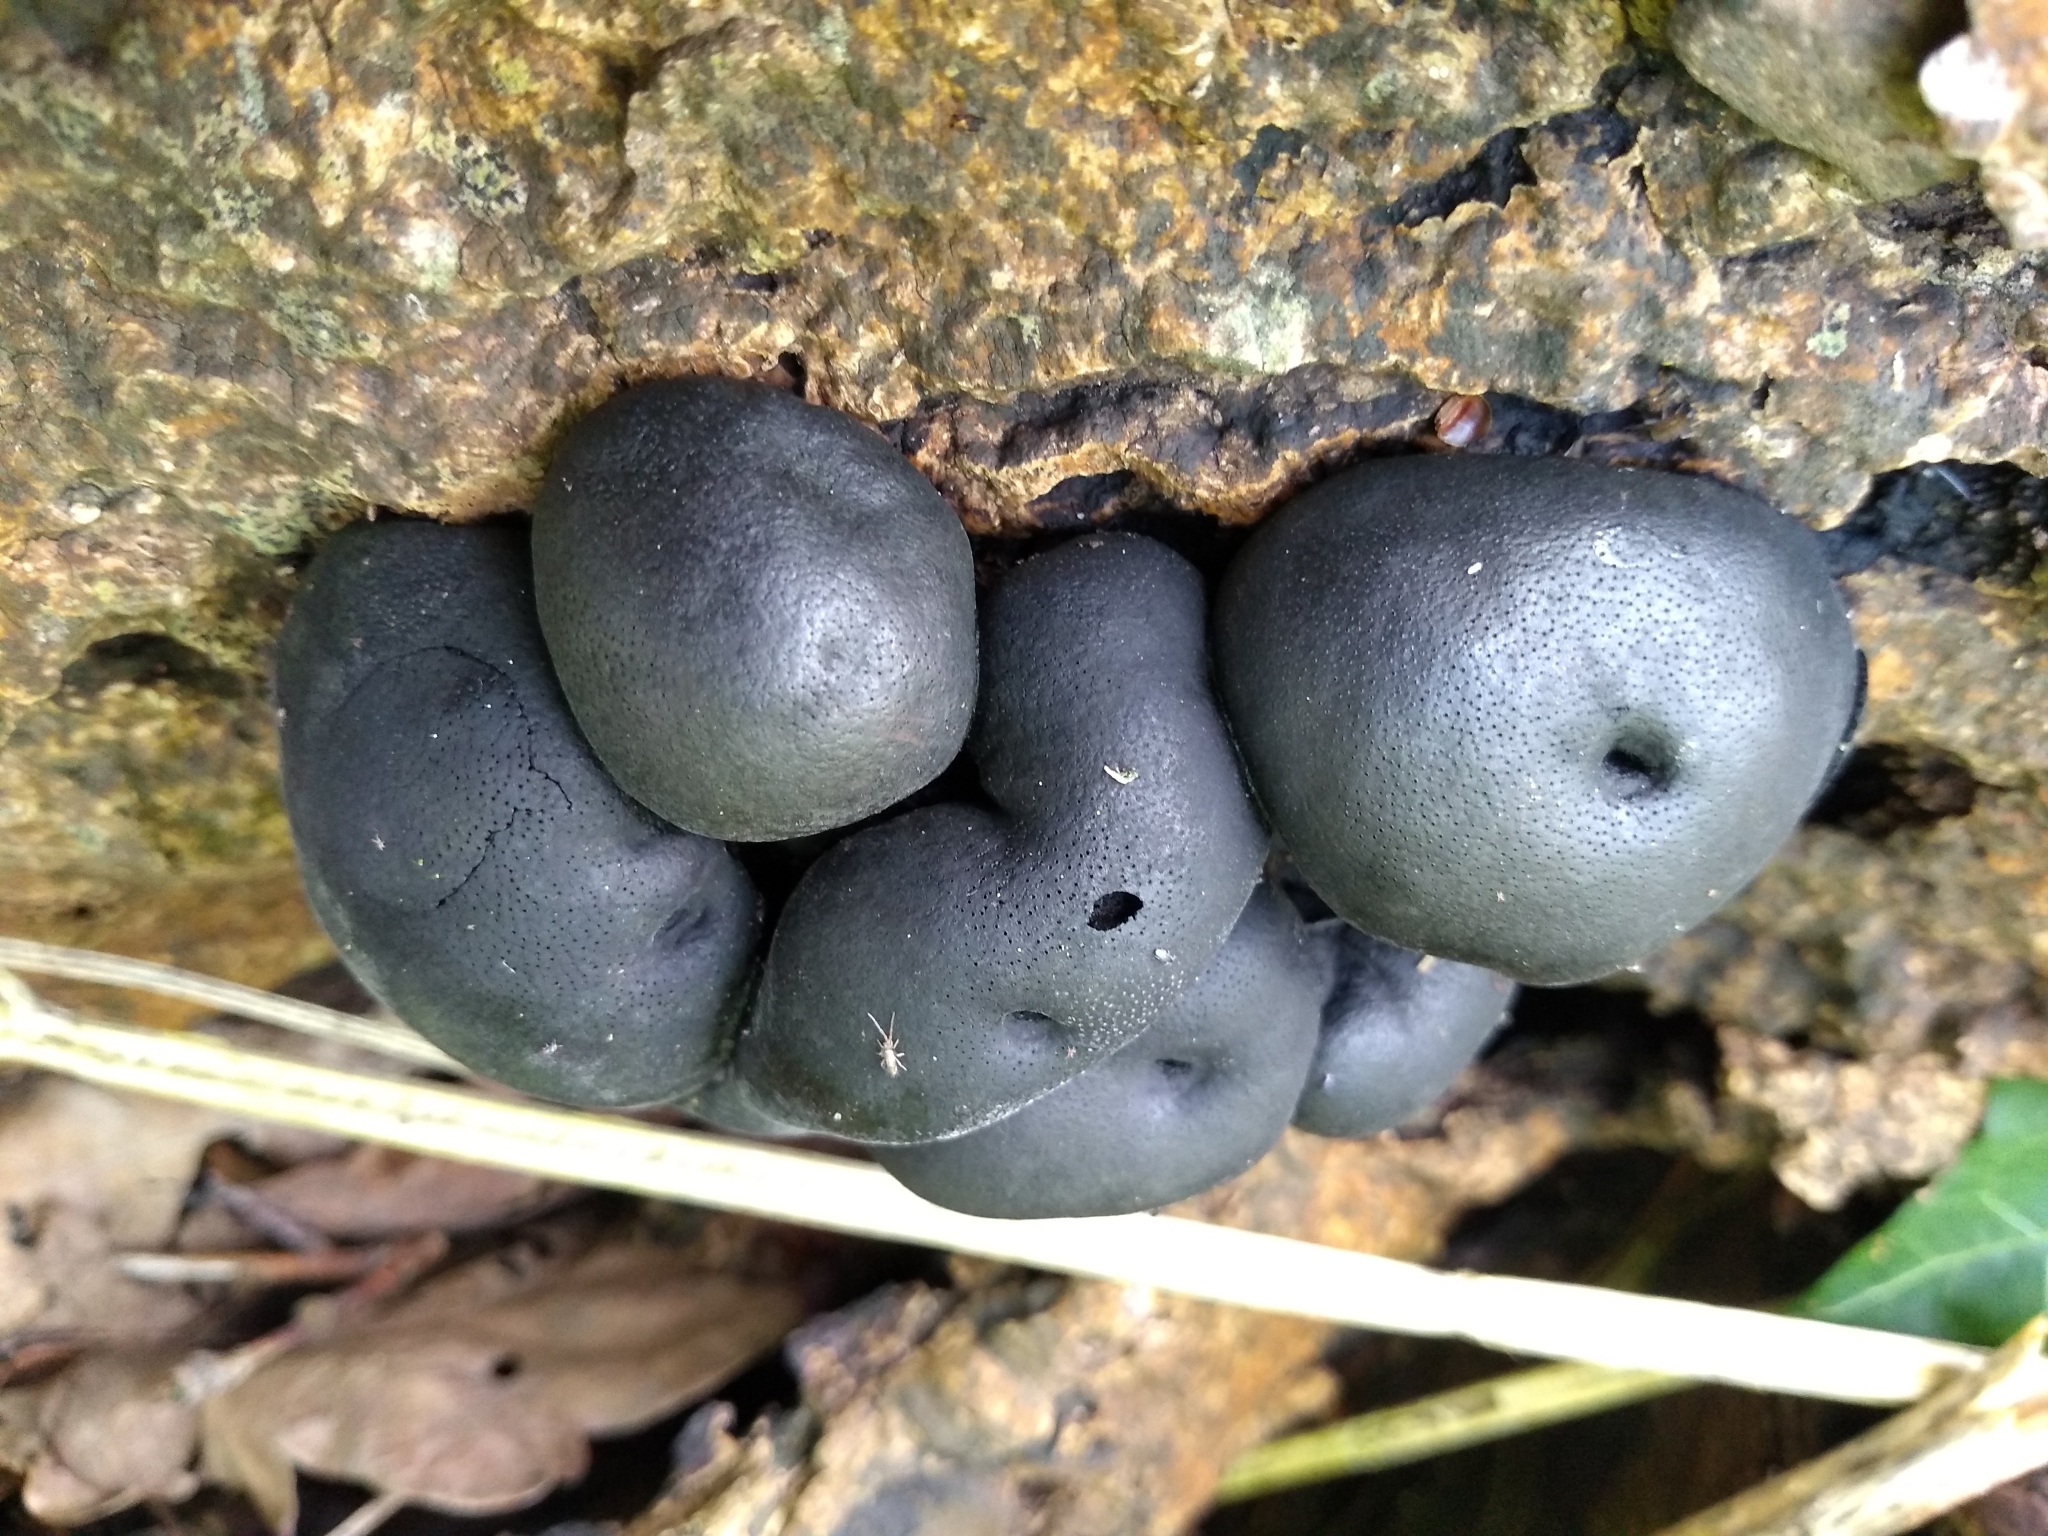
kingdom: Fungi
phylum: Ascomycota
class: Sordariomycetes
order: Xylariales
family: Hypoxylaceae
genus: Daldinia
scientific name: Daldinia concentrica
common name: Cramp balls
